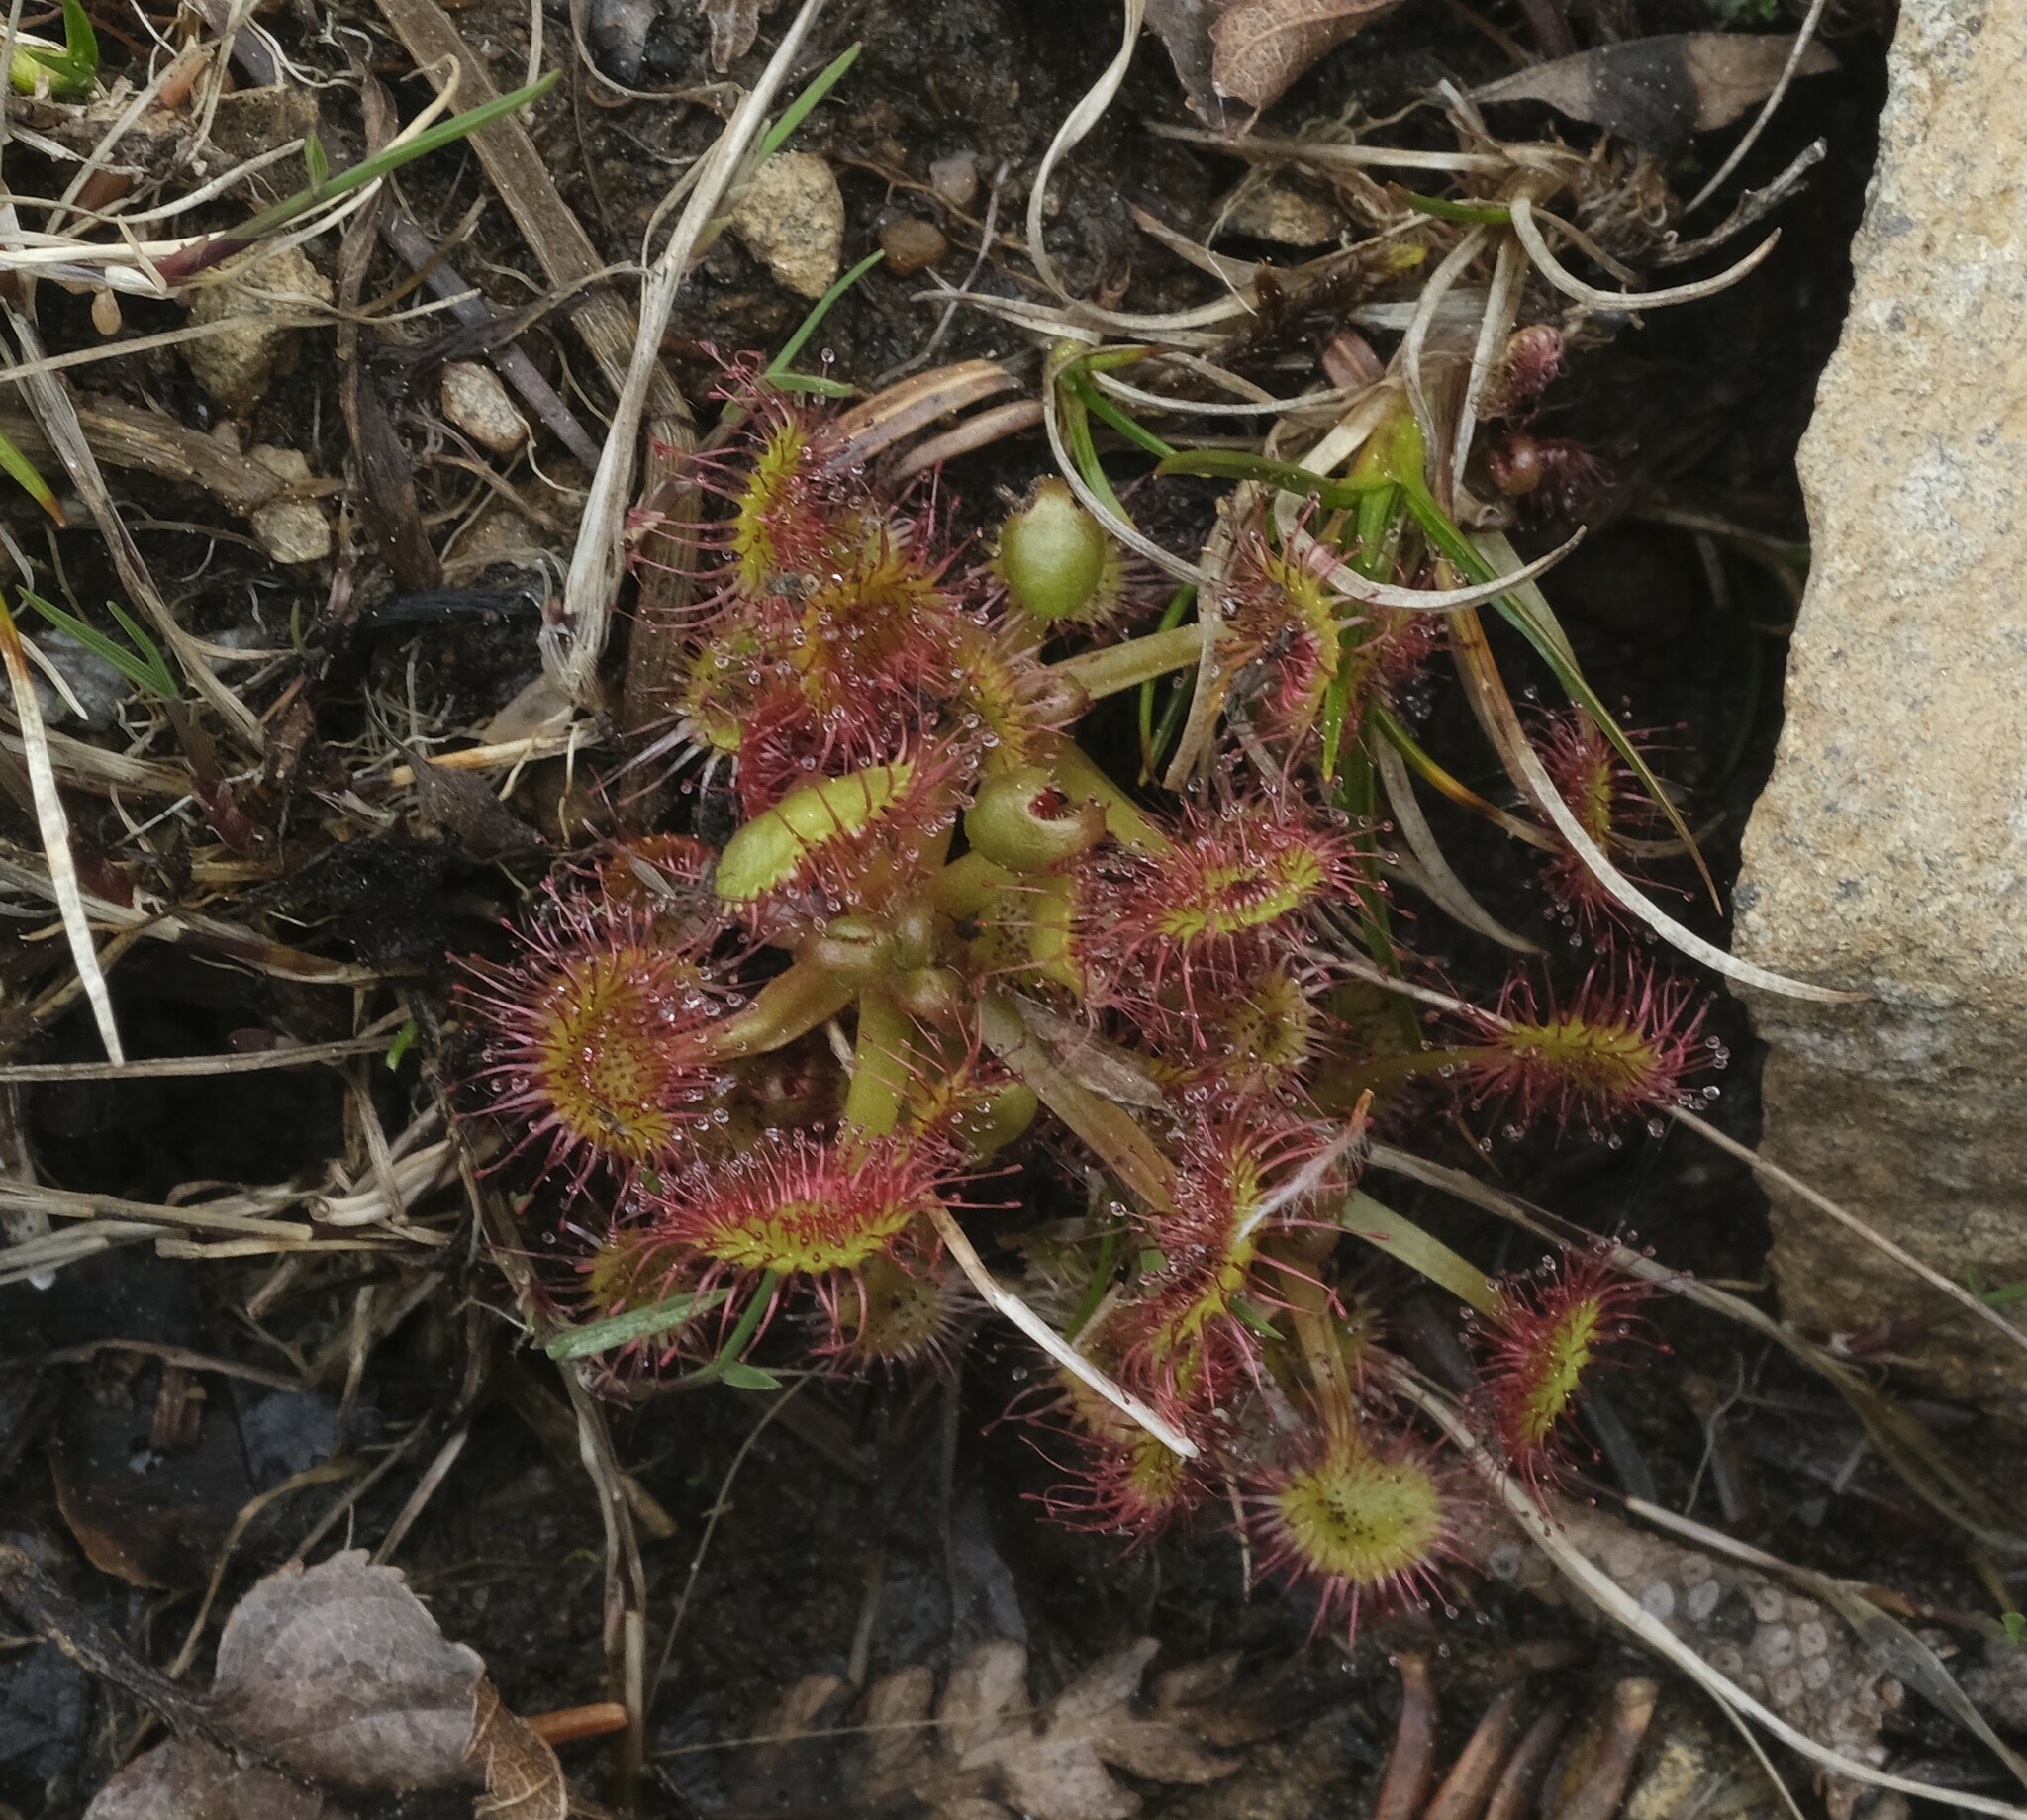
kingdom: Plantae
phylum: Tracheophyta
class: Magnoliopsida
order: Caryophyllales
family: Droseraceae
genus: Drosera
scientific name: Drosera rotundifolia
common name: Round-leaved sundew
